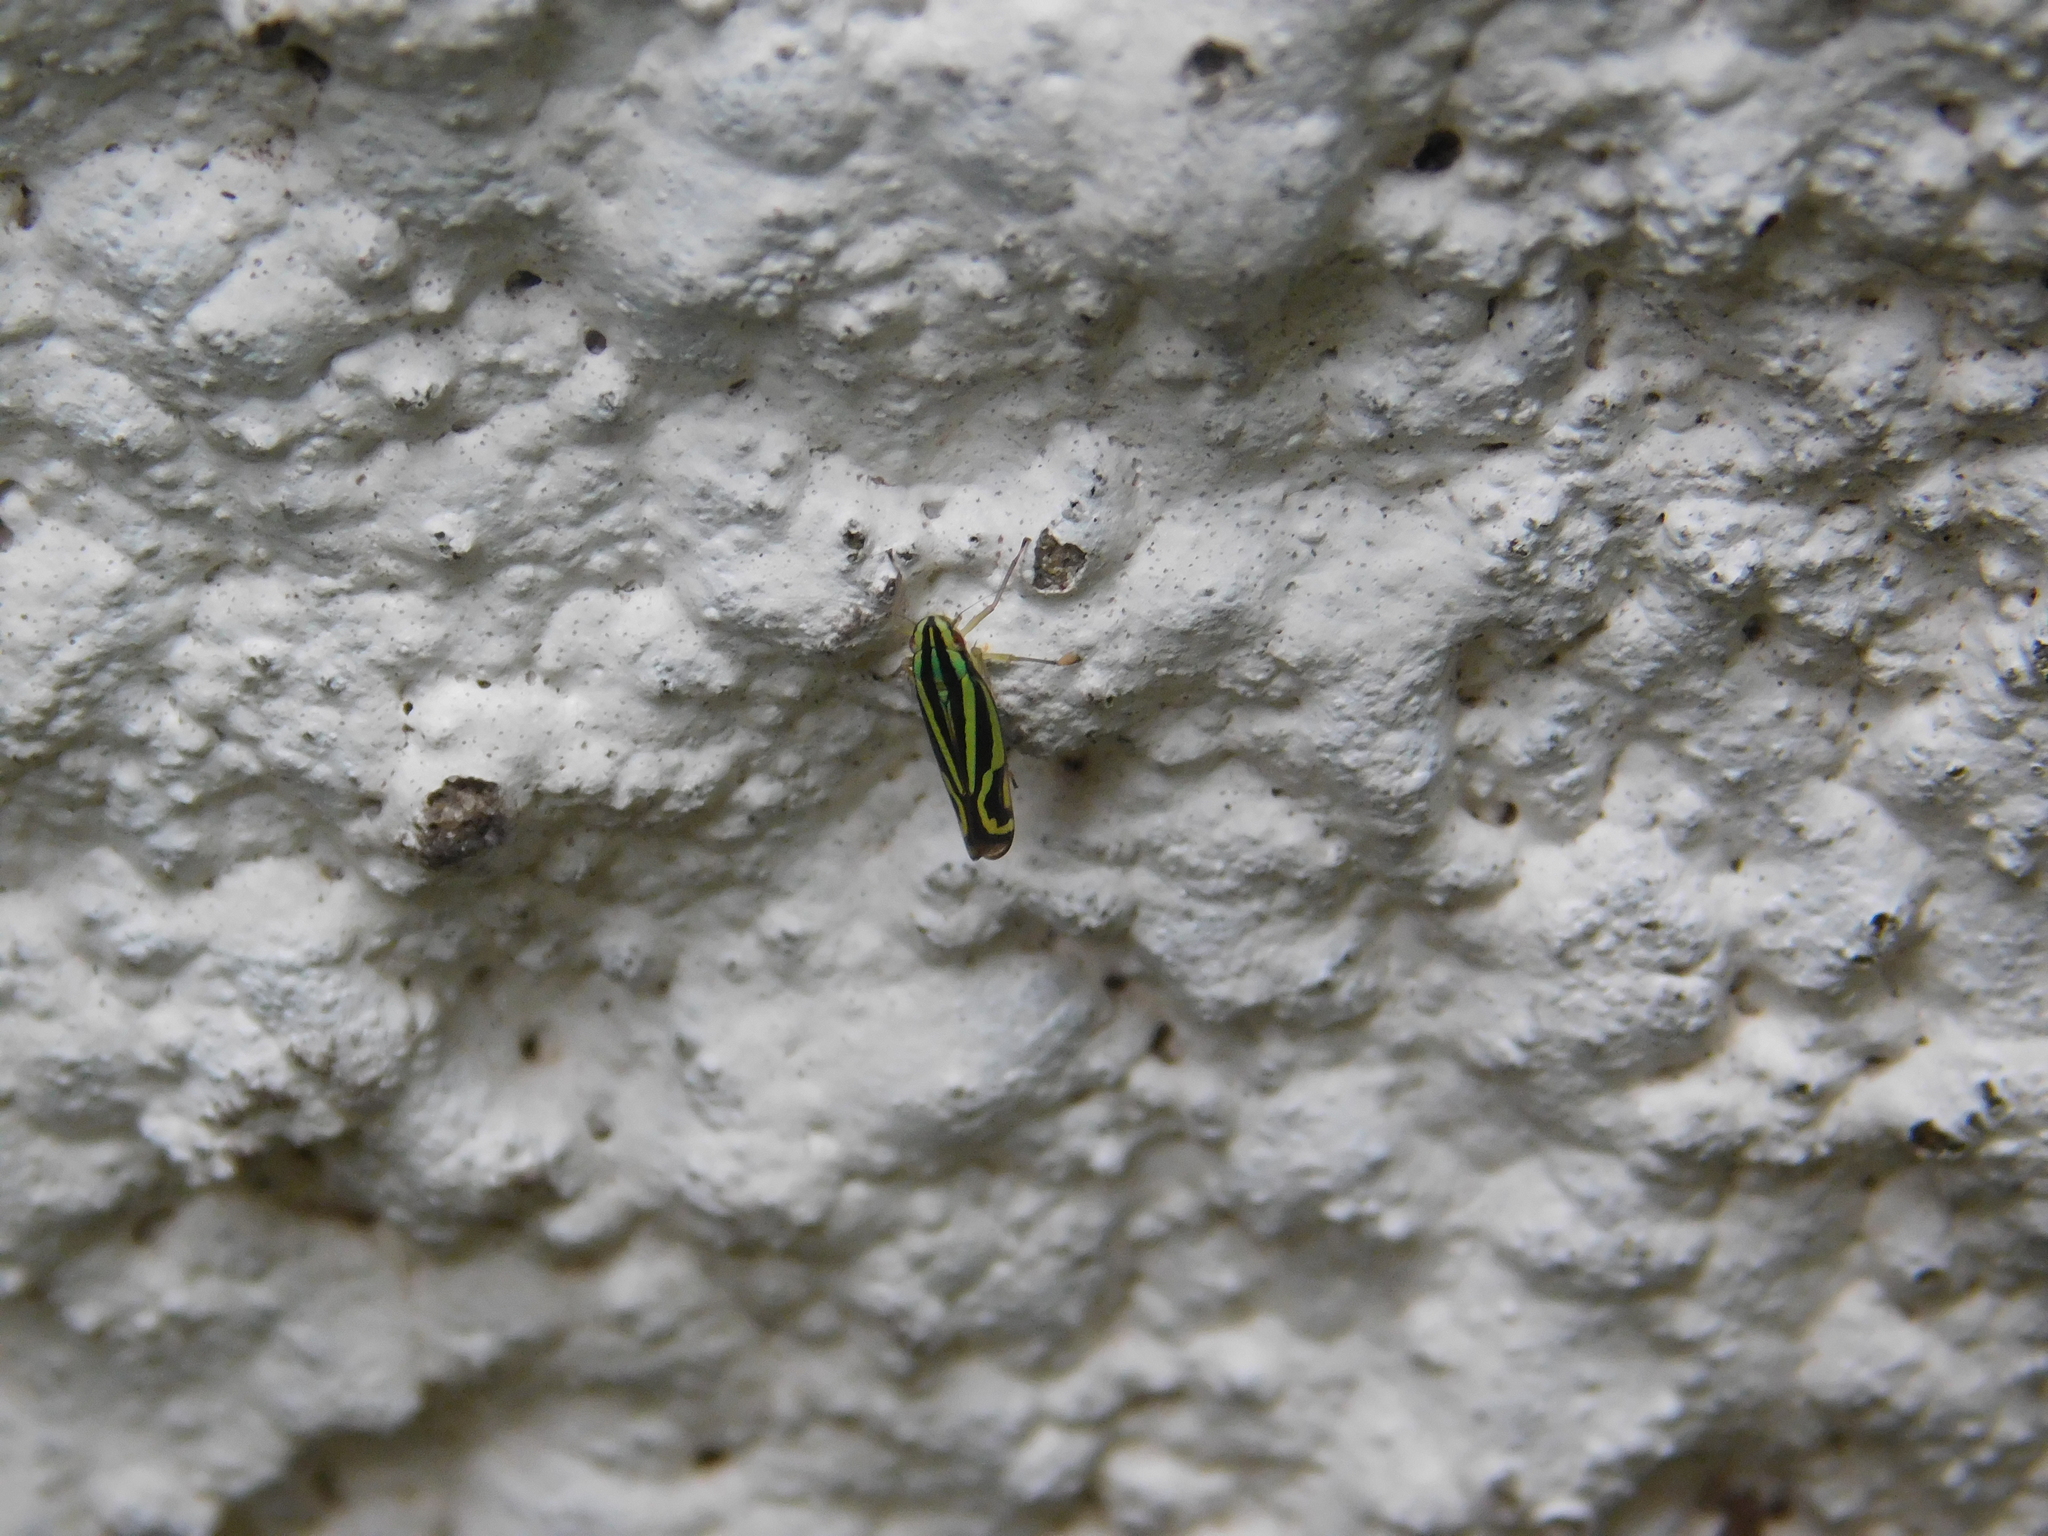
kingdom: Animalia
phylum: Arthropoda
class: Insecta
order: Hemiptera
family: Cicadellidae
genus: Sibovia
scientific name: Sibovia sagata
